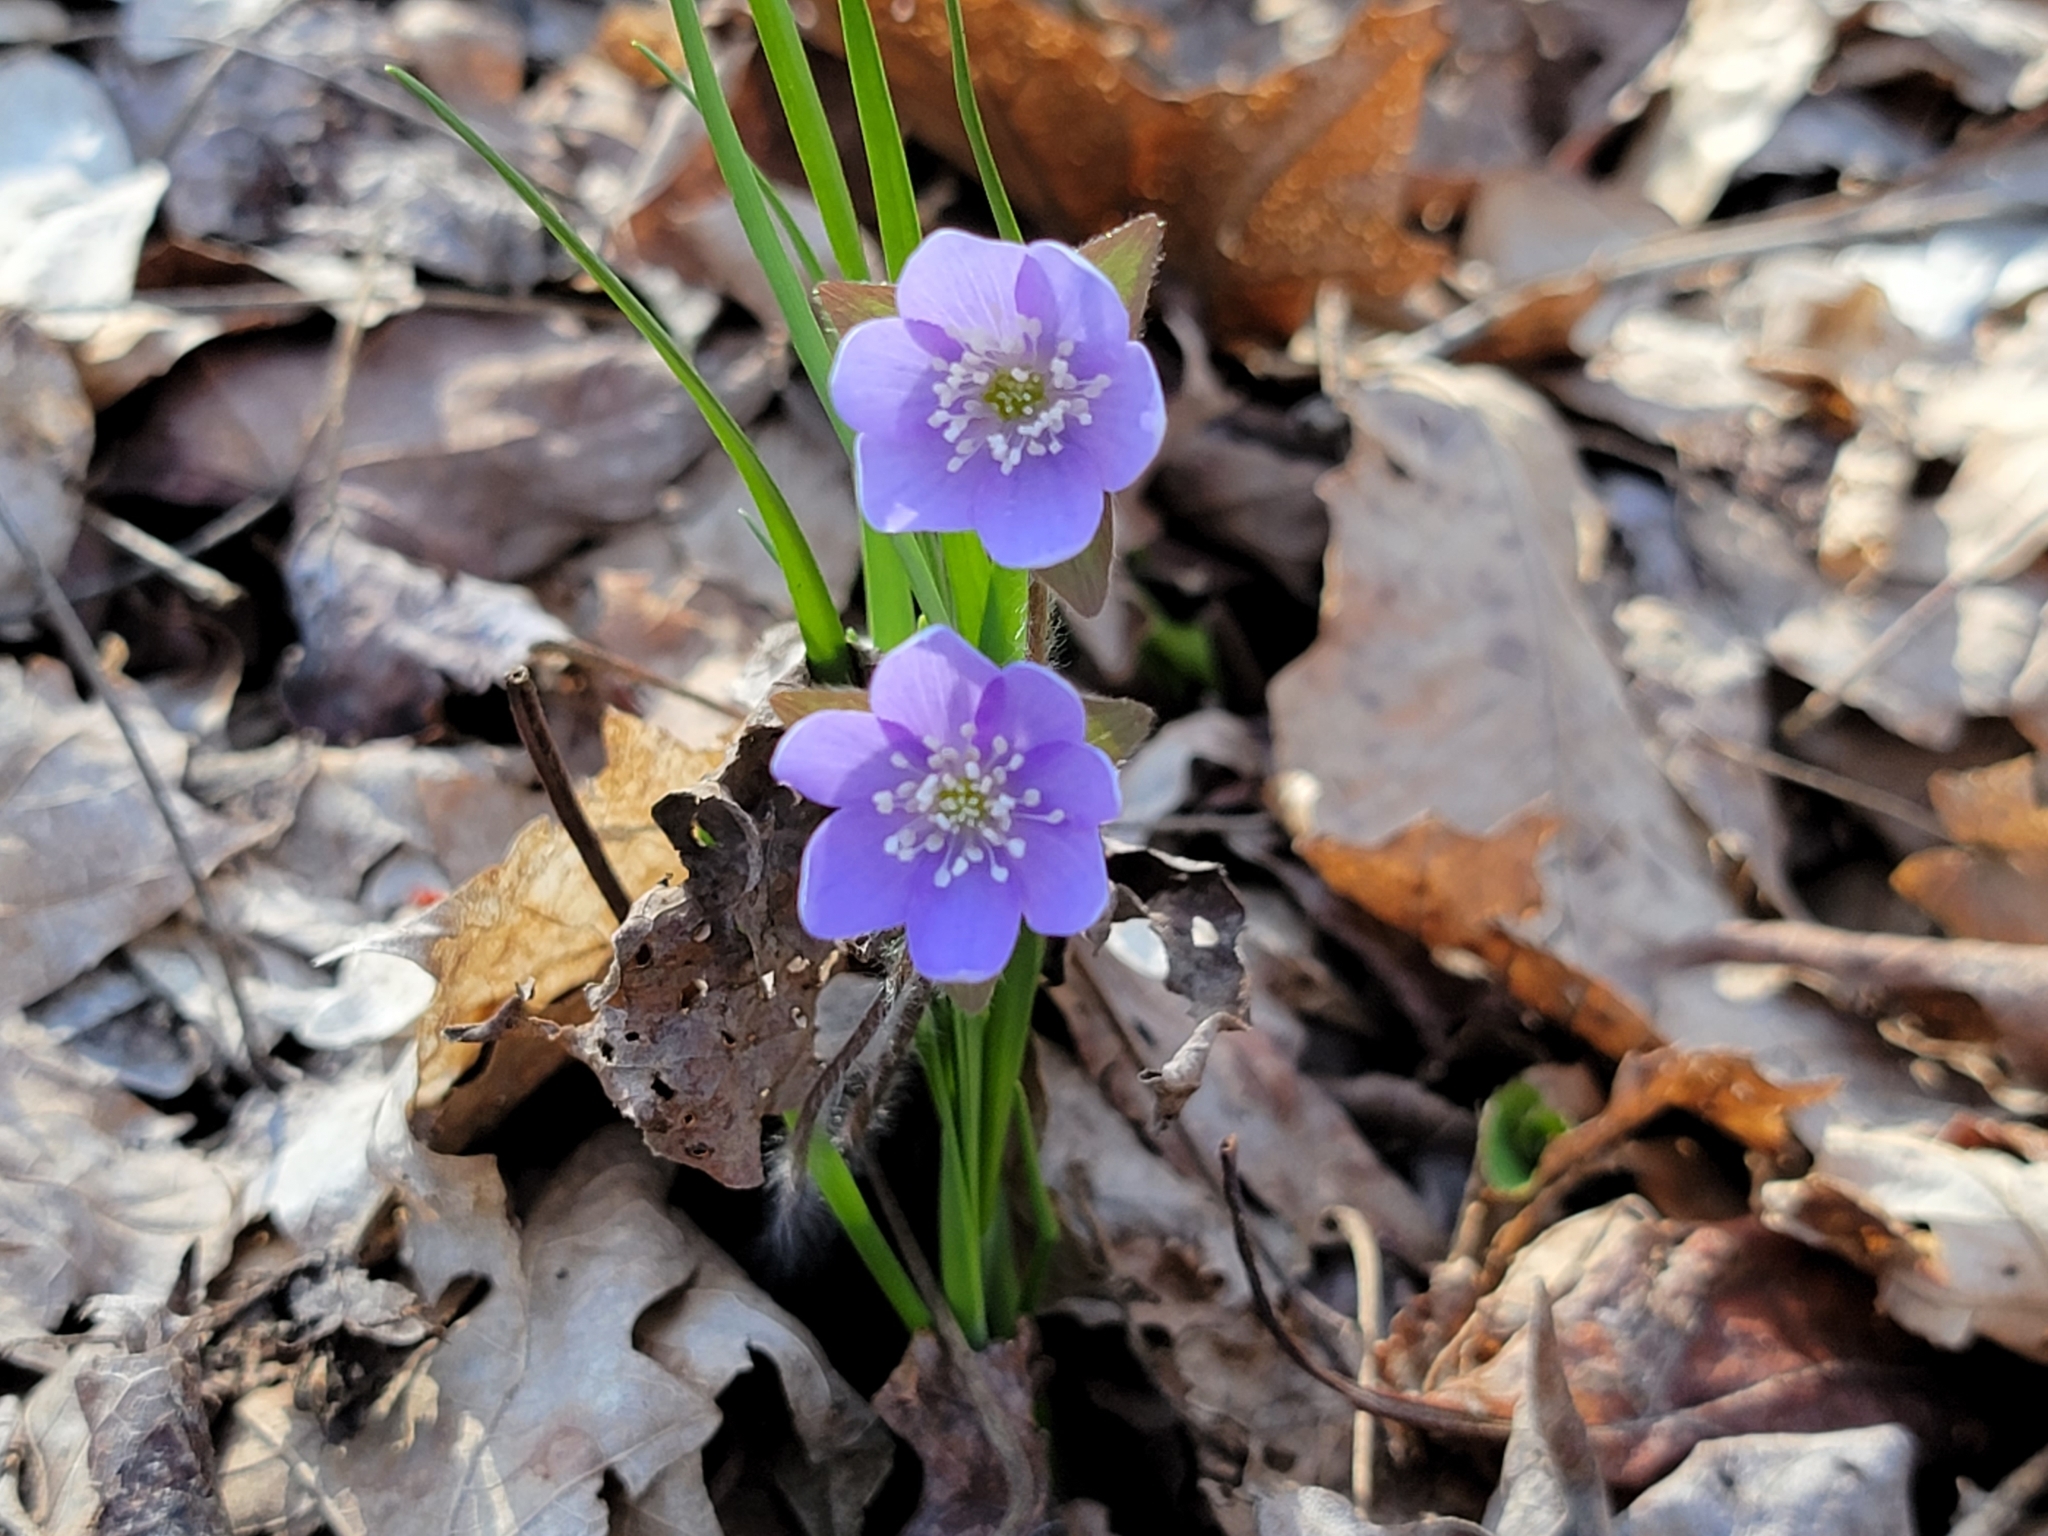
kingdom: Plantae
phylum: Tracheophyta
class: Magnoliopsida
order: Ranunculales
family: Ranunculaceae
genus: Hepatica
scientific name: Hepatica acutiloba
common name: Sharp-lobed hepatica
